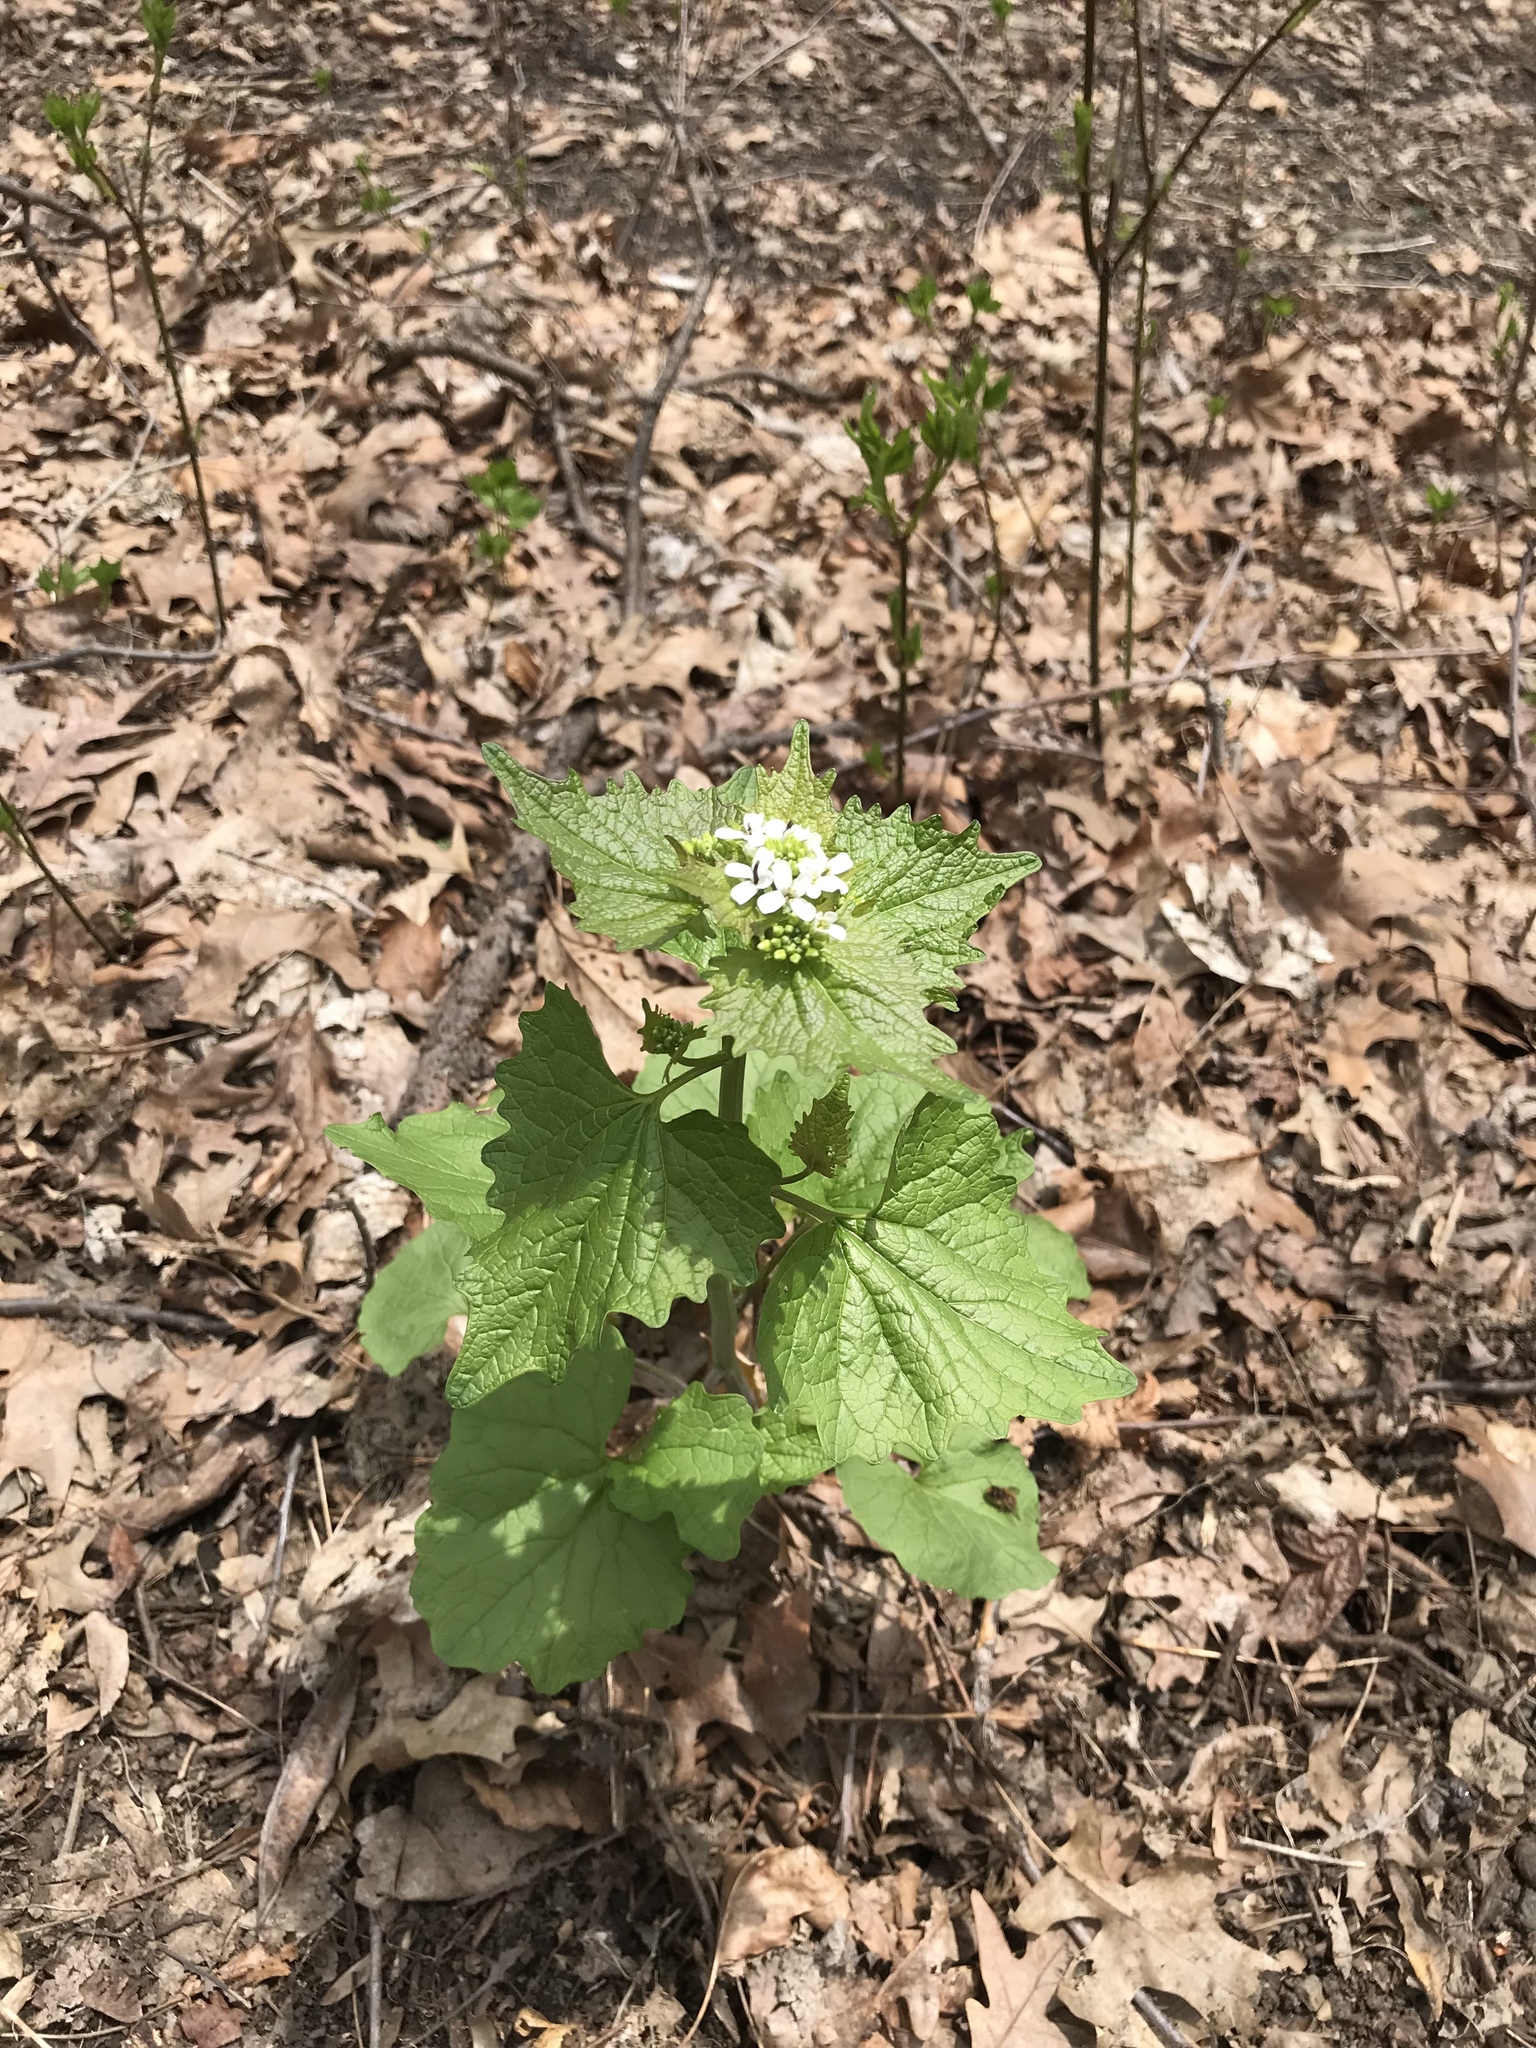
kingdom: Plantae
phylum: Tracheophyta
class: Magnoliopsida
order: Brassicales
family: Brassicaceae
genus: Alliaria
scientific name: Alliaria petiolata
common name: Garlic mustard
